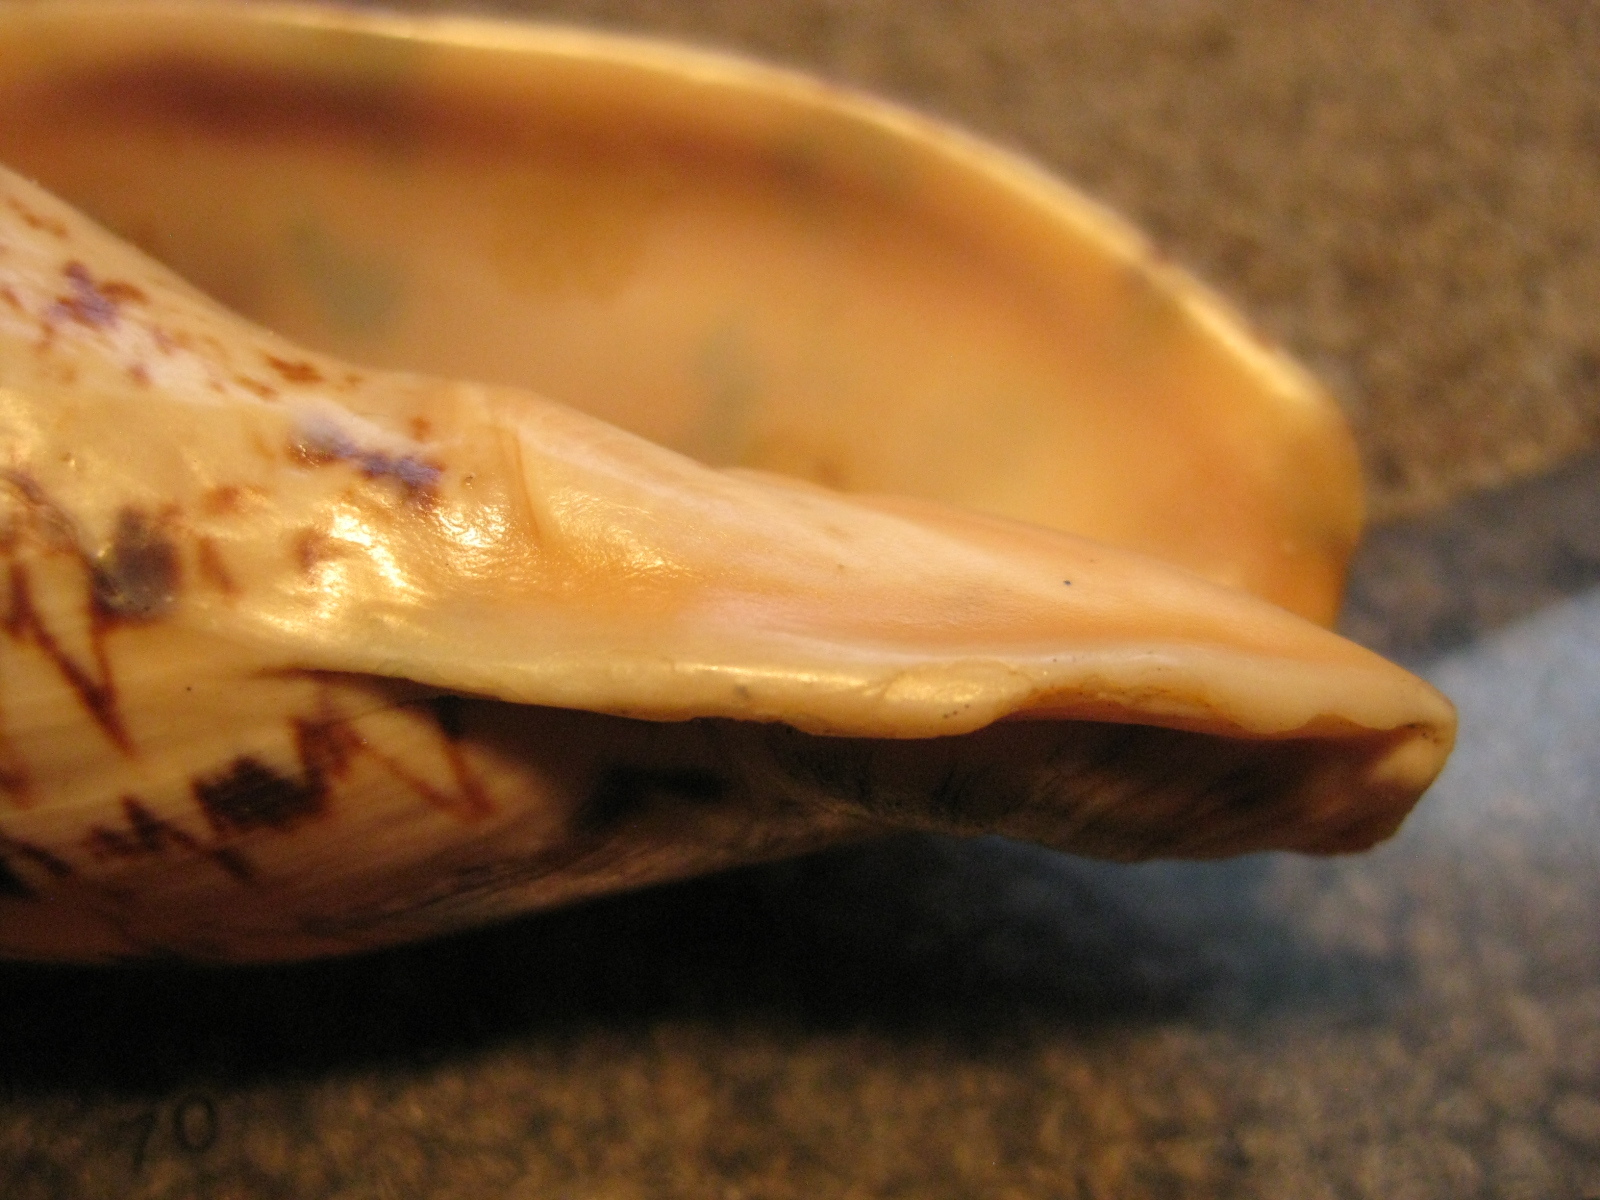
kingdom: Animalia
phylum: Mollusca
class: Gastropoda
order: Neogastropoda
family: Volutidae
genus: Alcithoe
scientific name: Alcithoe arabica
